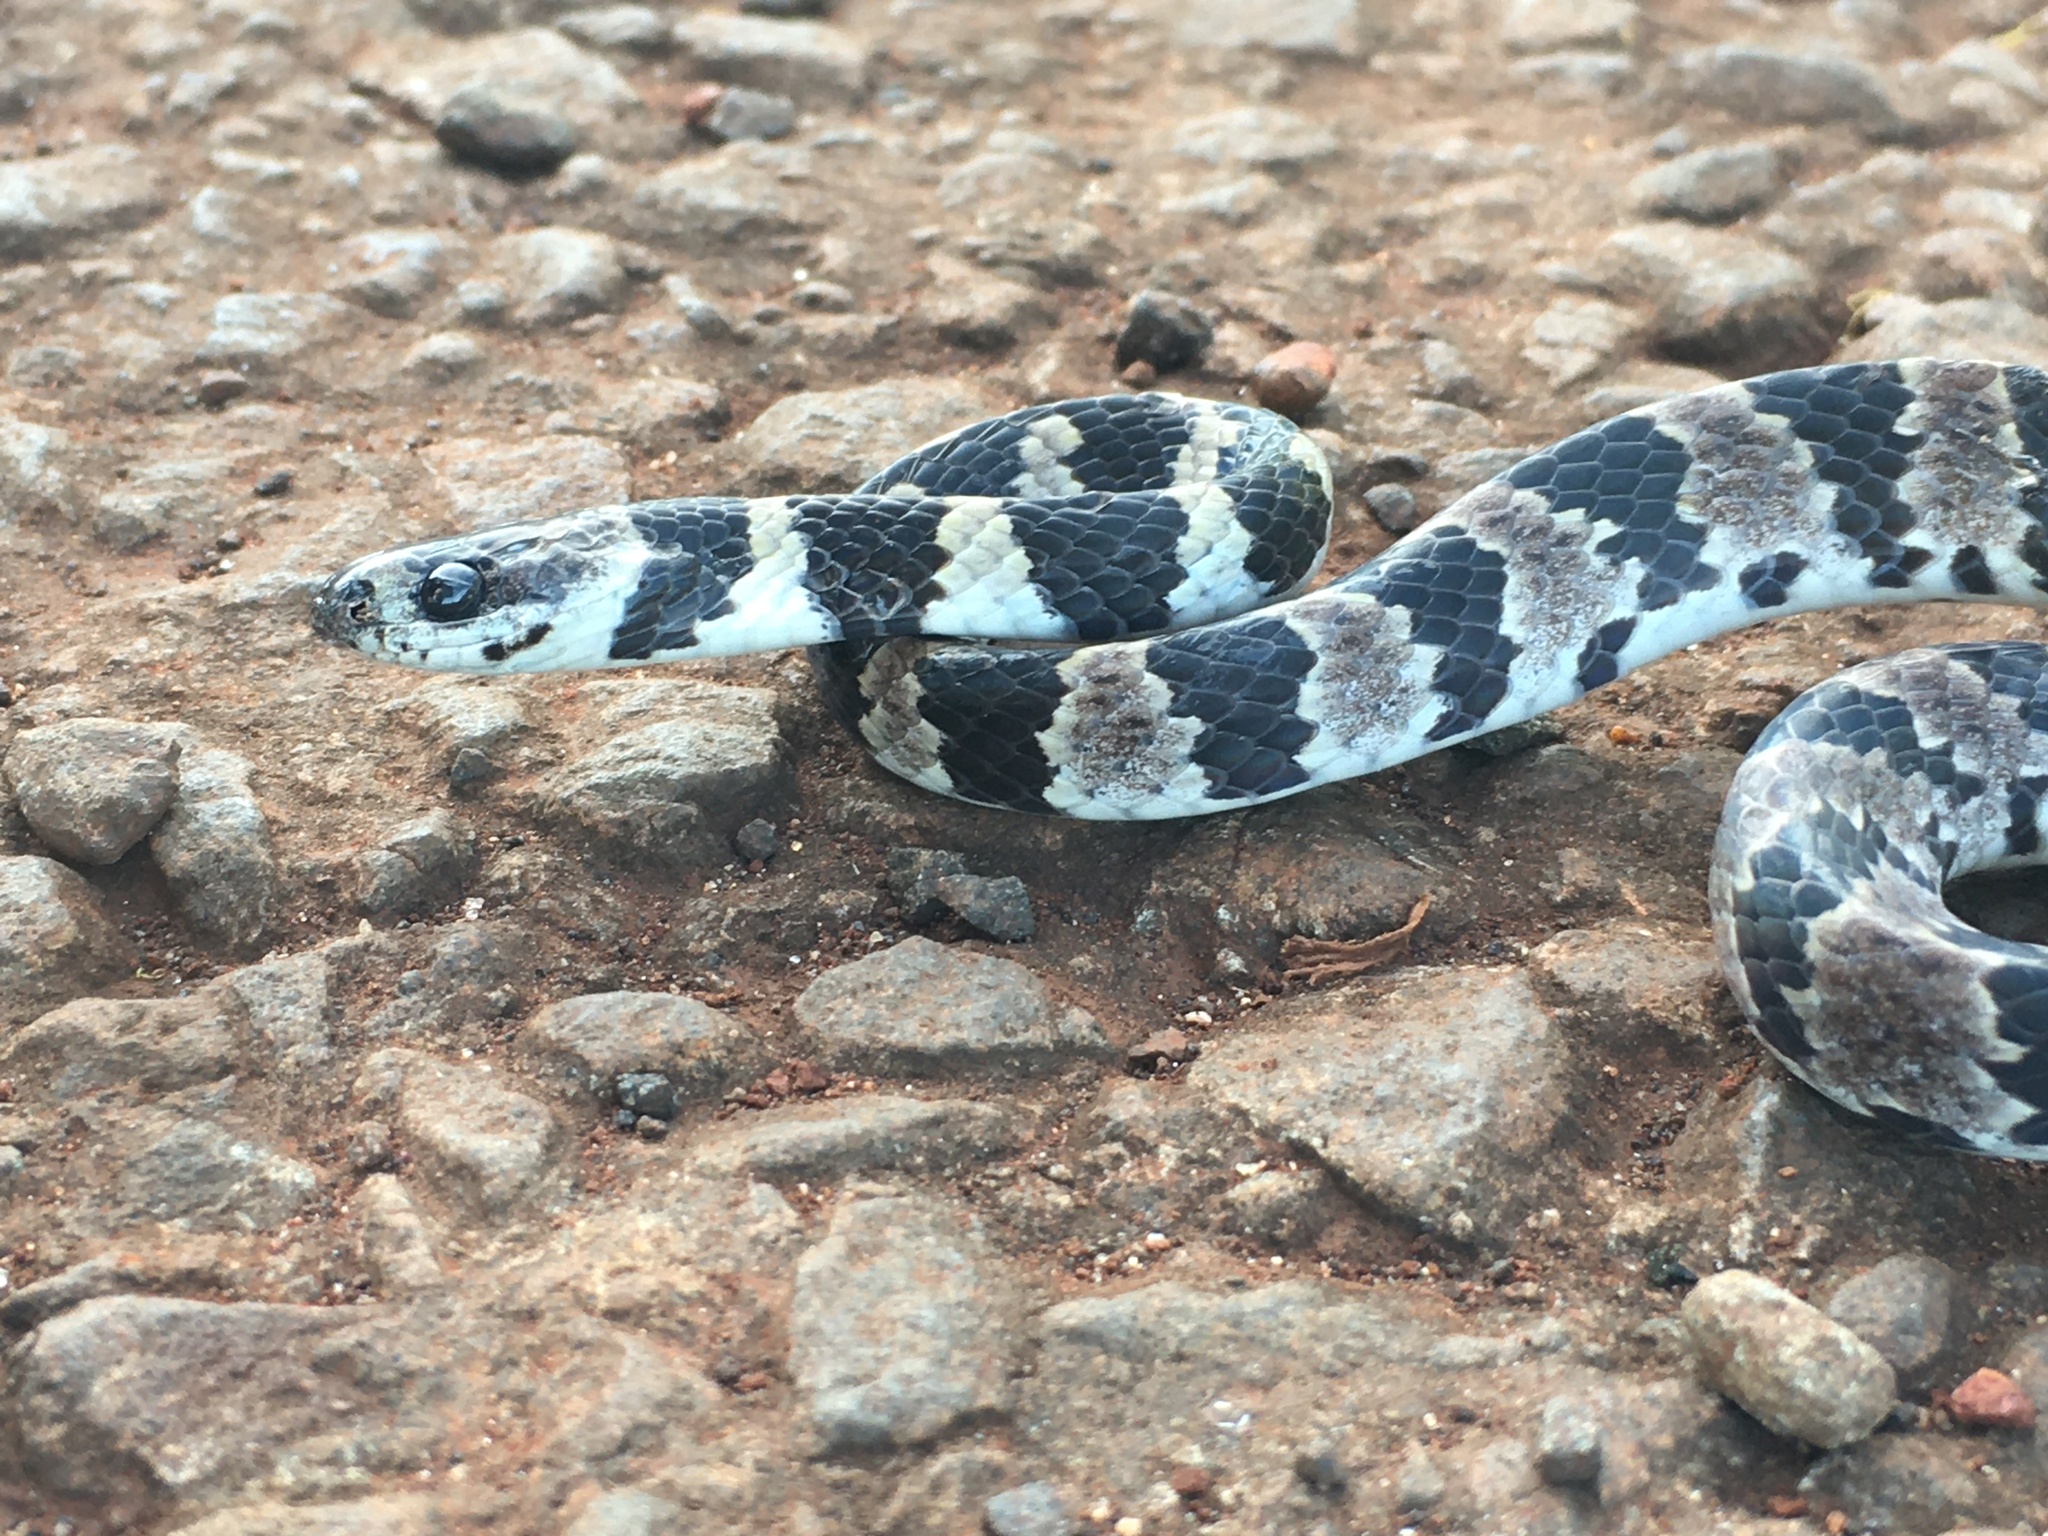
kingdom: Animalia
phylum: Chordata
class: Squamata
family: Colubridae
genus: Dipsas
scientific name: Dipsas mikanii
